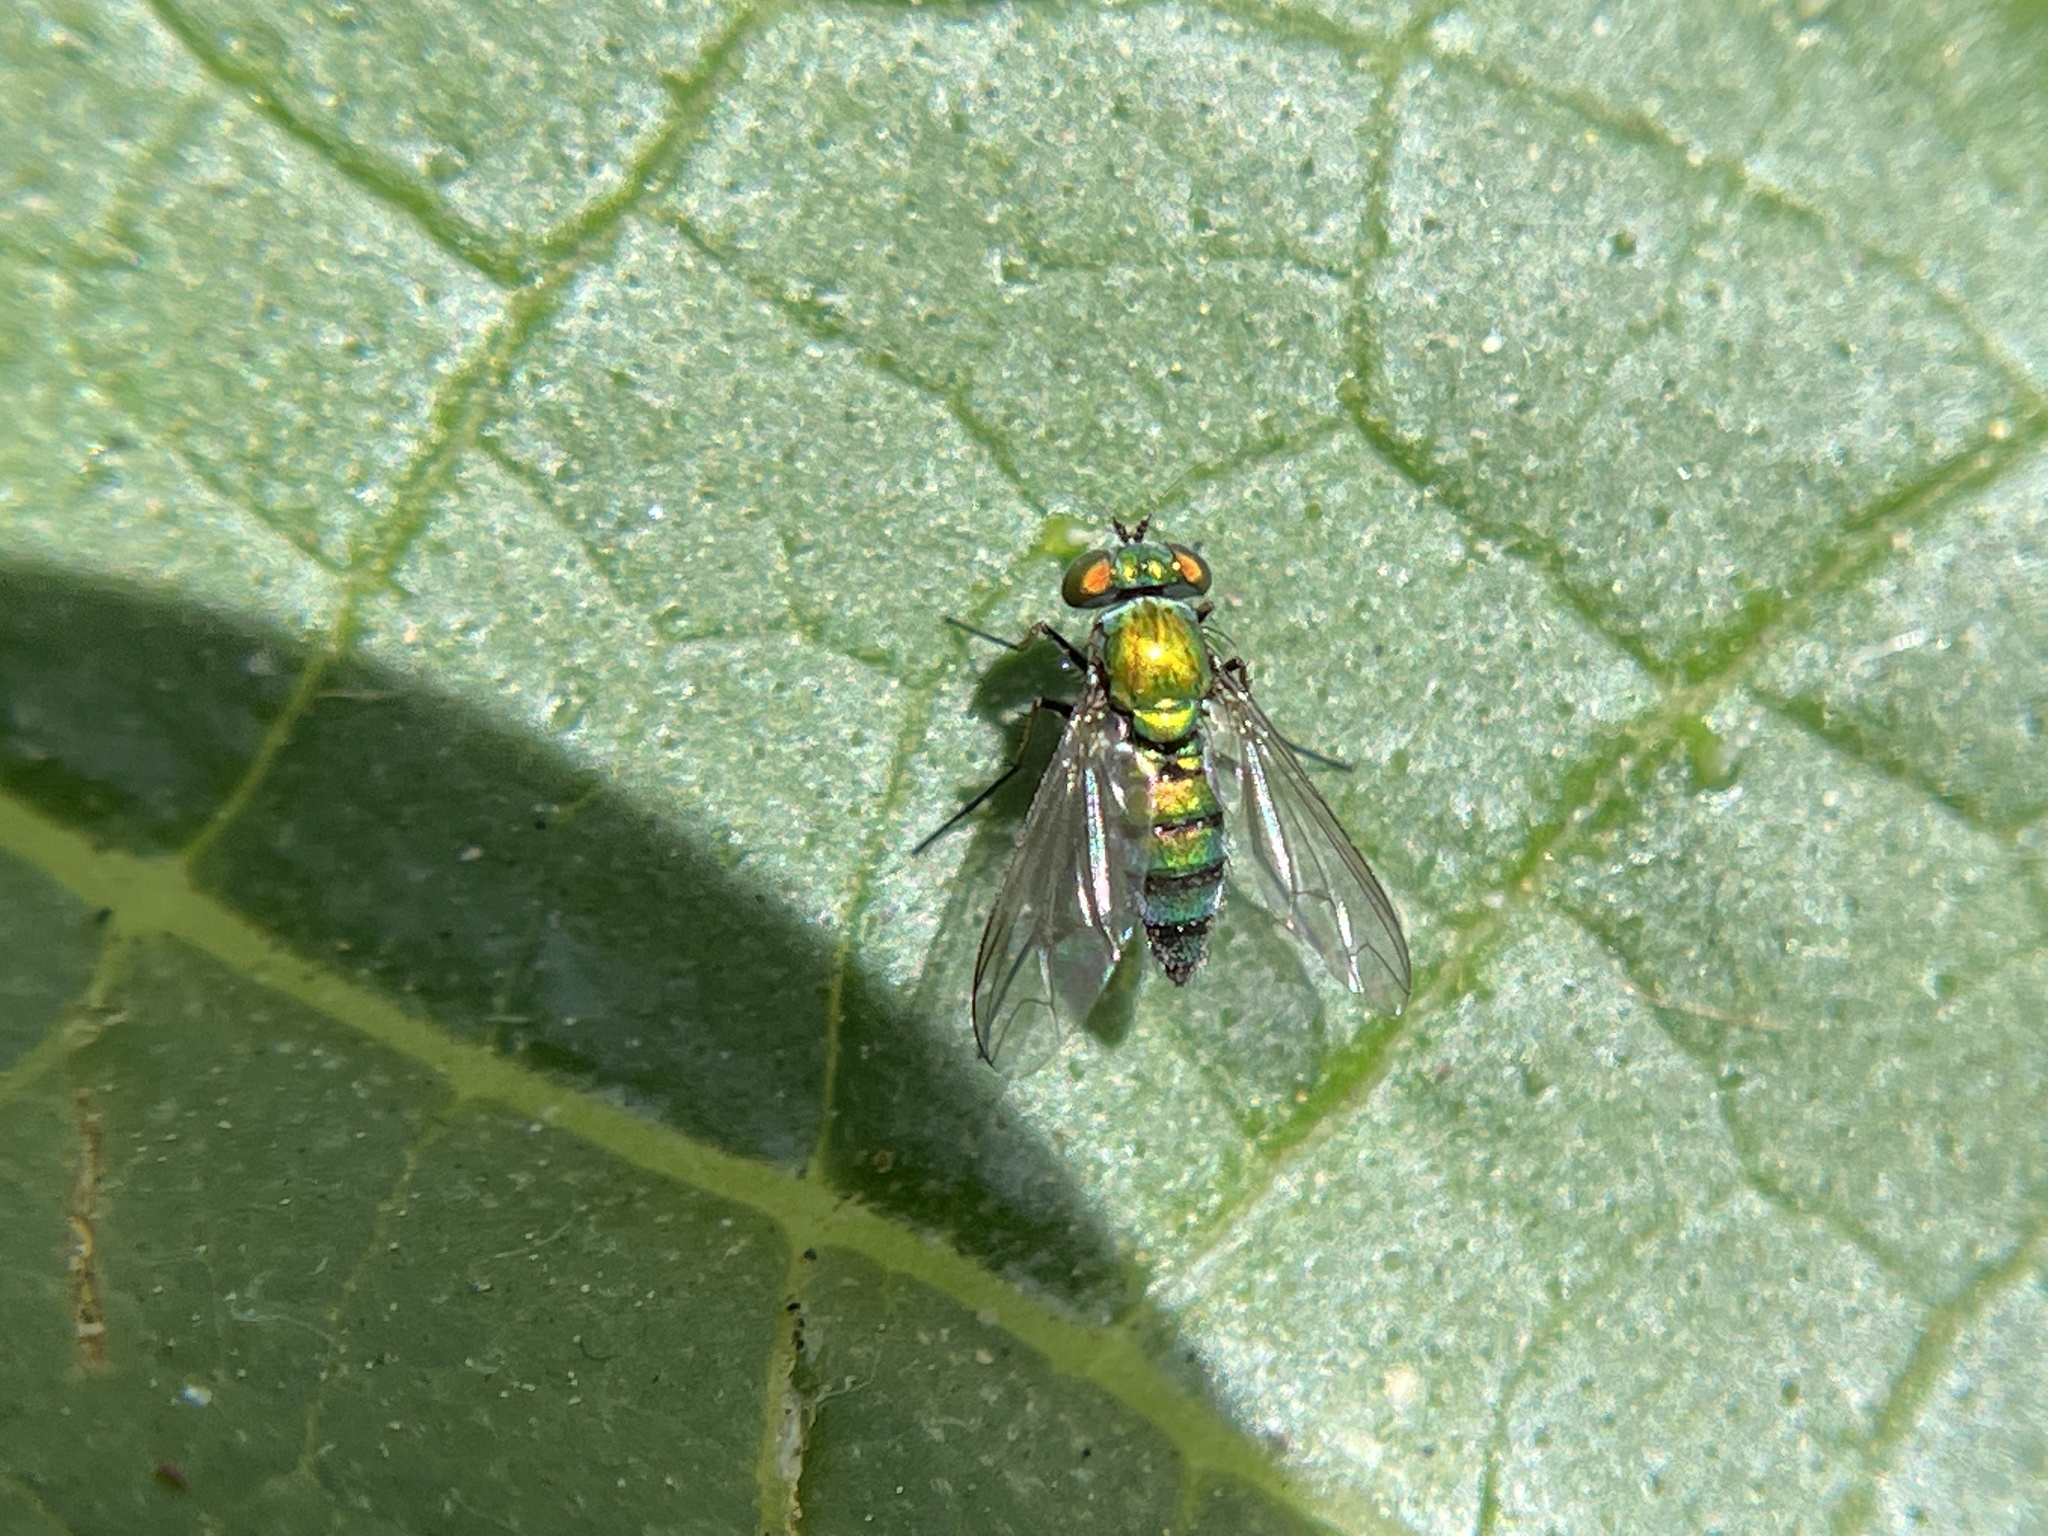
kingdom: Animalia
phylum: Arthropoda
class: Insecta
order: Diptera
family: Dolichopodidae
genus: Condylostylus
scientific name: Condylostylus longicornis
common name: Long-legged fly
